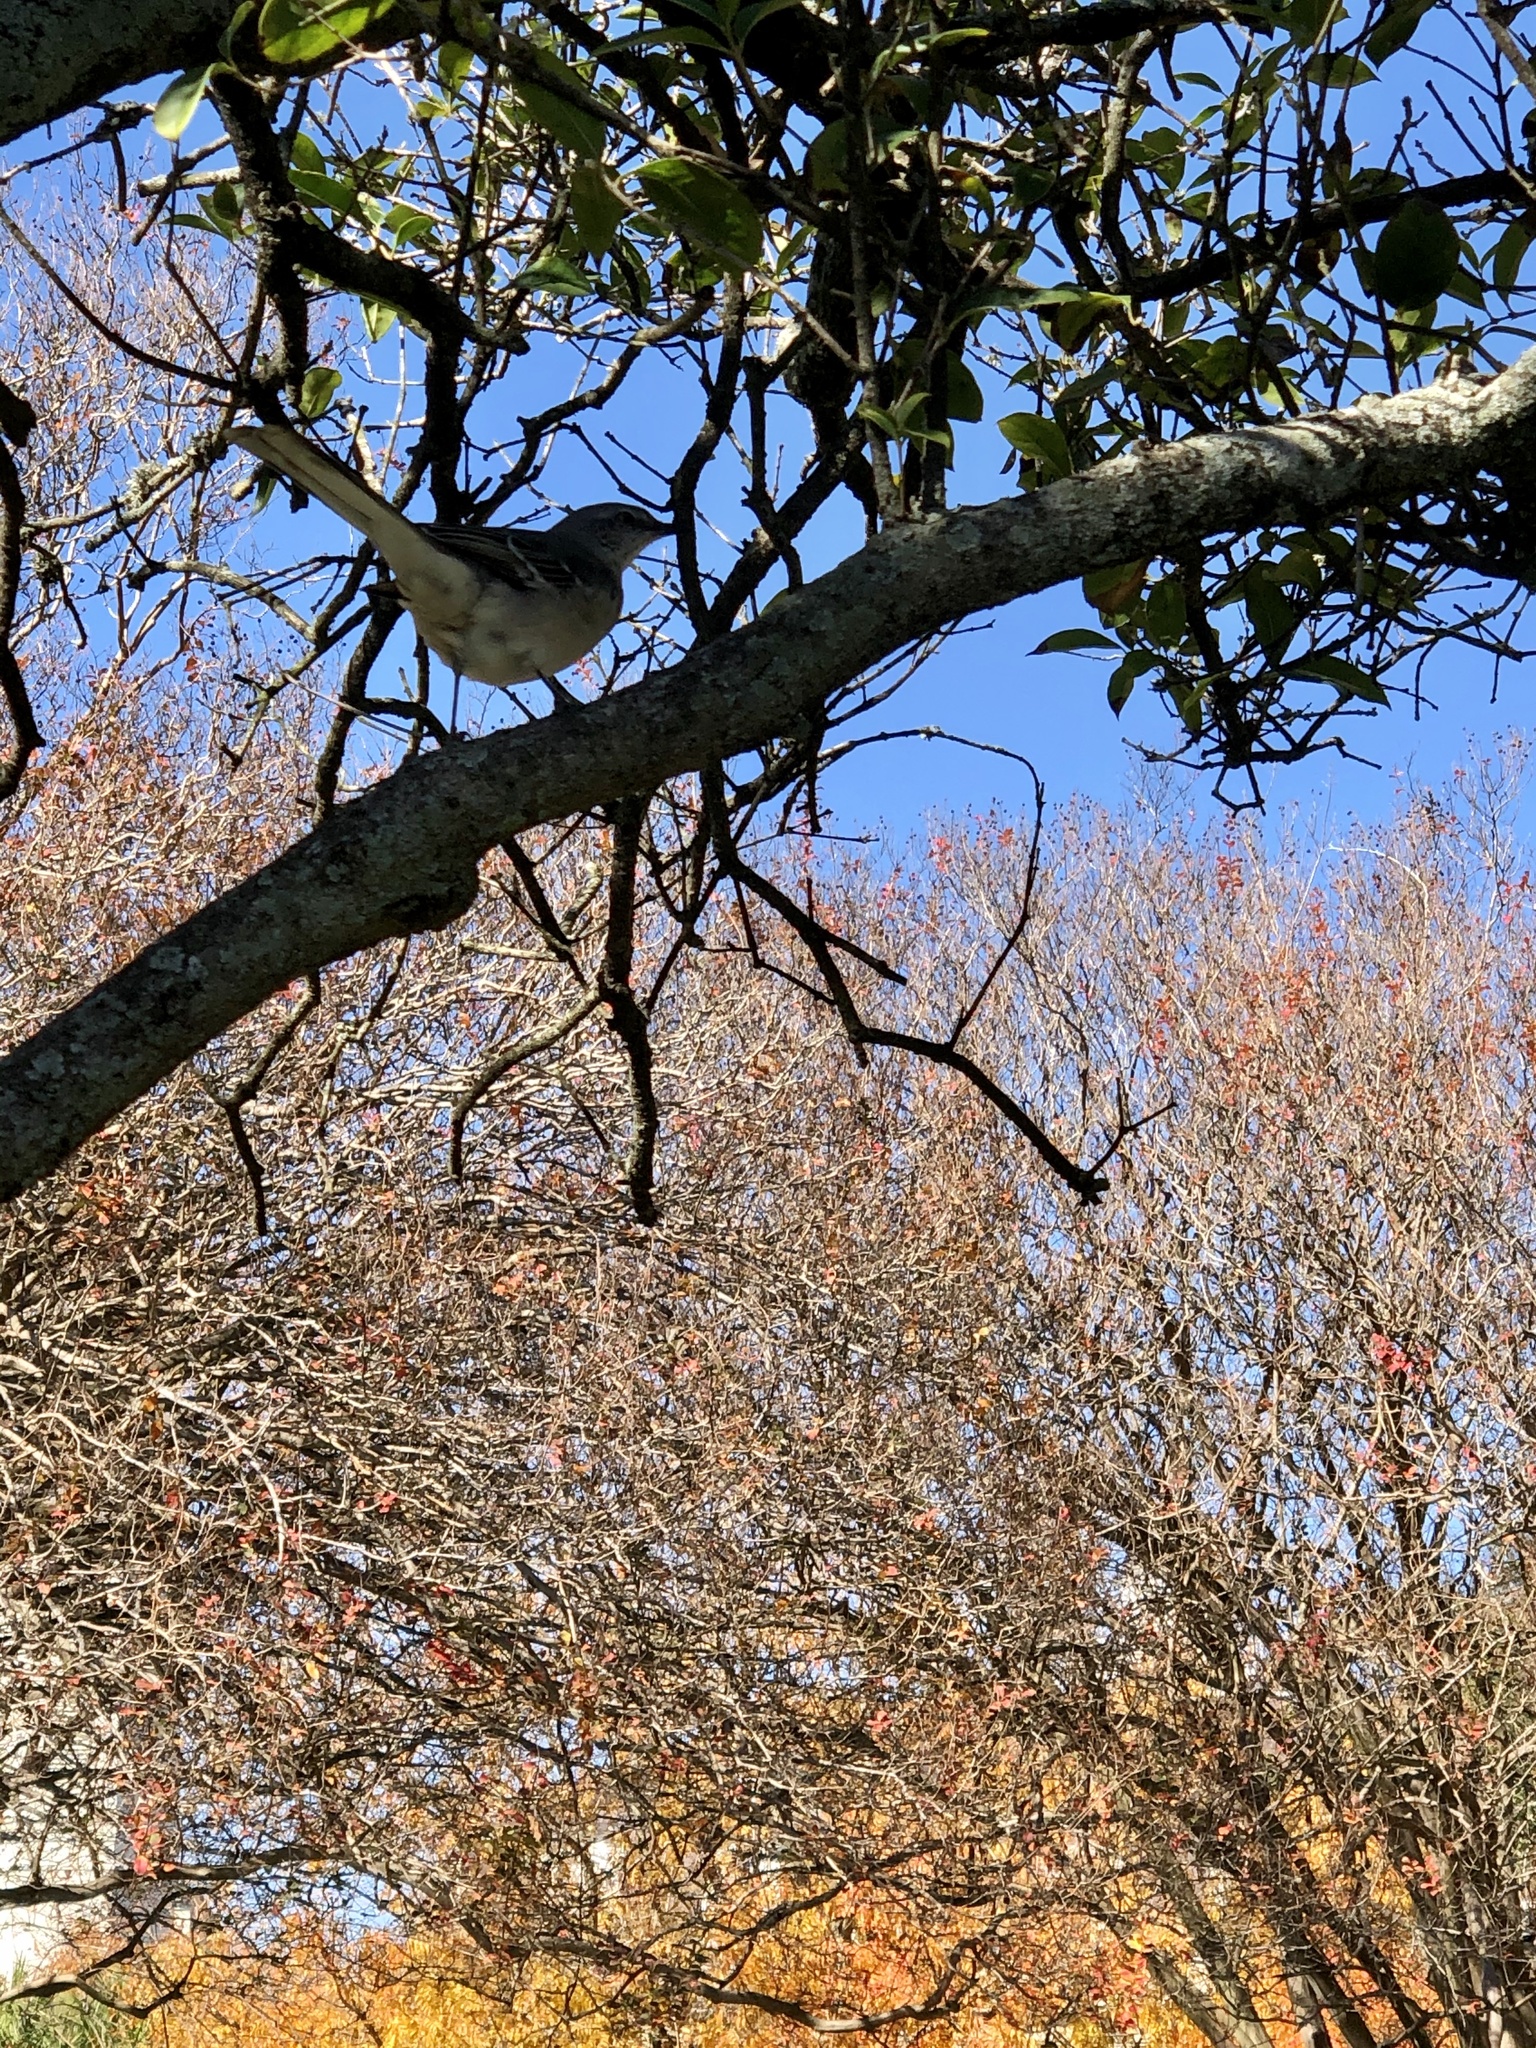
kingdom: Animalia
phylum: Chordata
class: Aves
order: Passeriformes
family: Mimidae
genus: Mimus
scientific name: Mimus polyglottos
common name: Northern mockingbird
